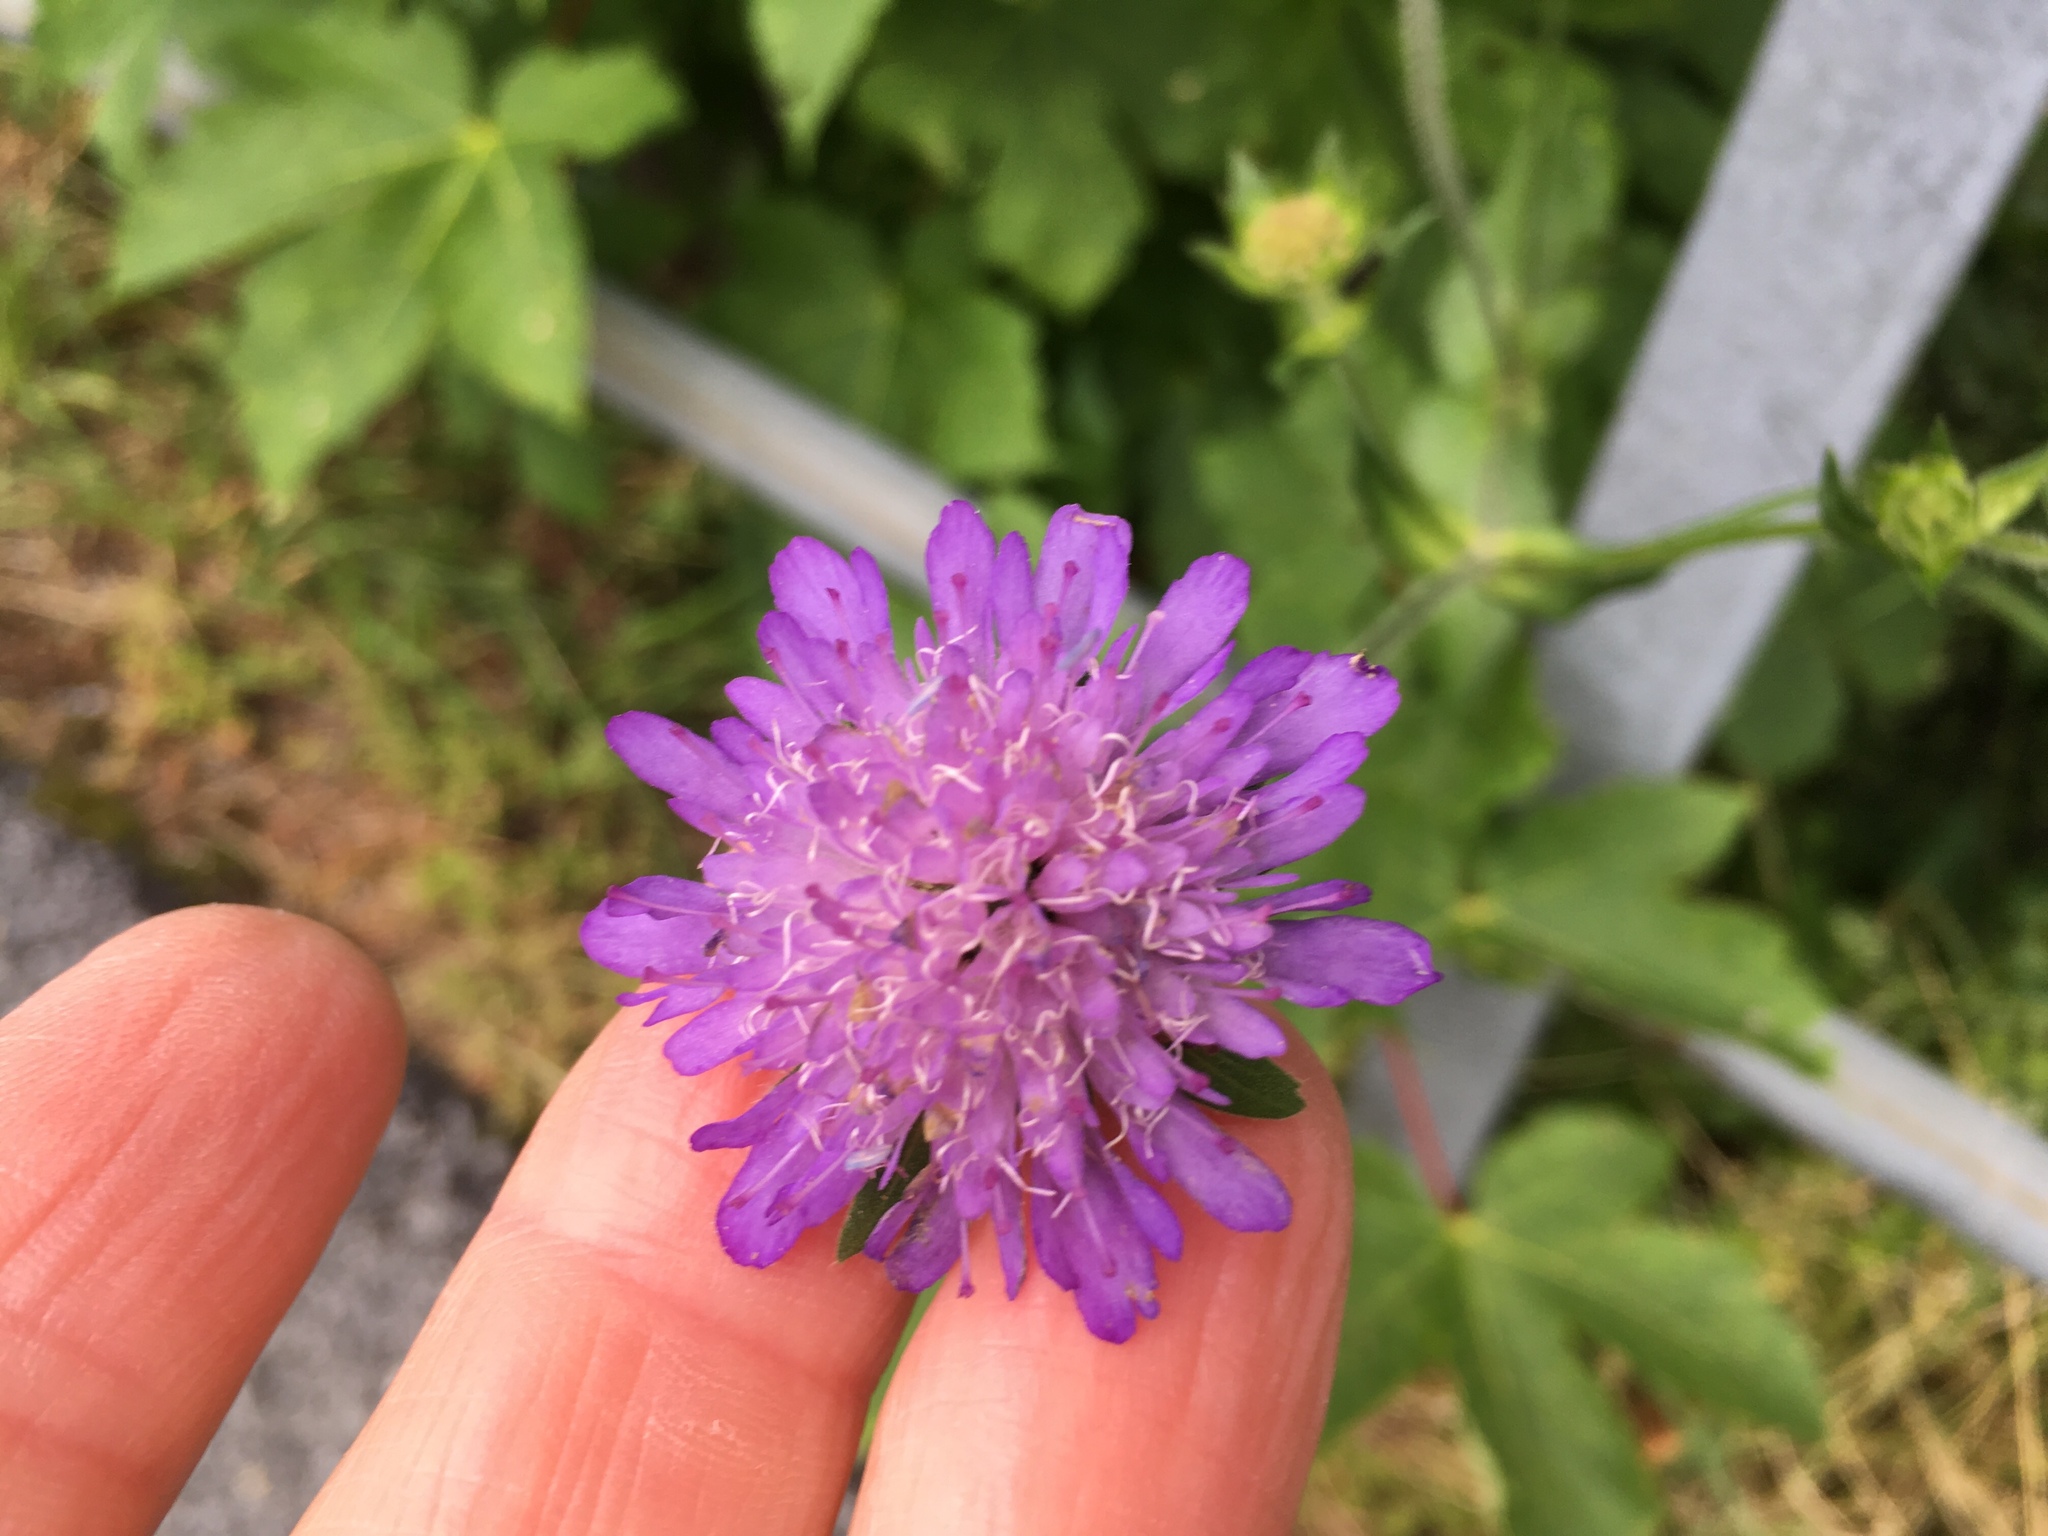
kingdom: Plantae
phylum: Tracheophyta
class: Magnoliopsida
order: Dipsacales
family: Caprifoliaceae
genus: Knautia
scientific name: Knautia dipsacifolia
